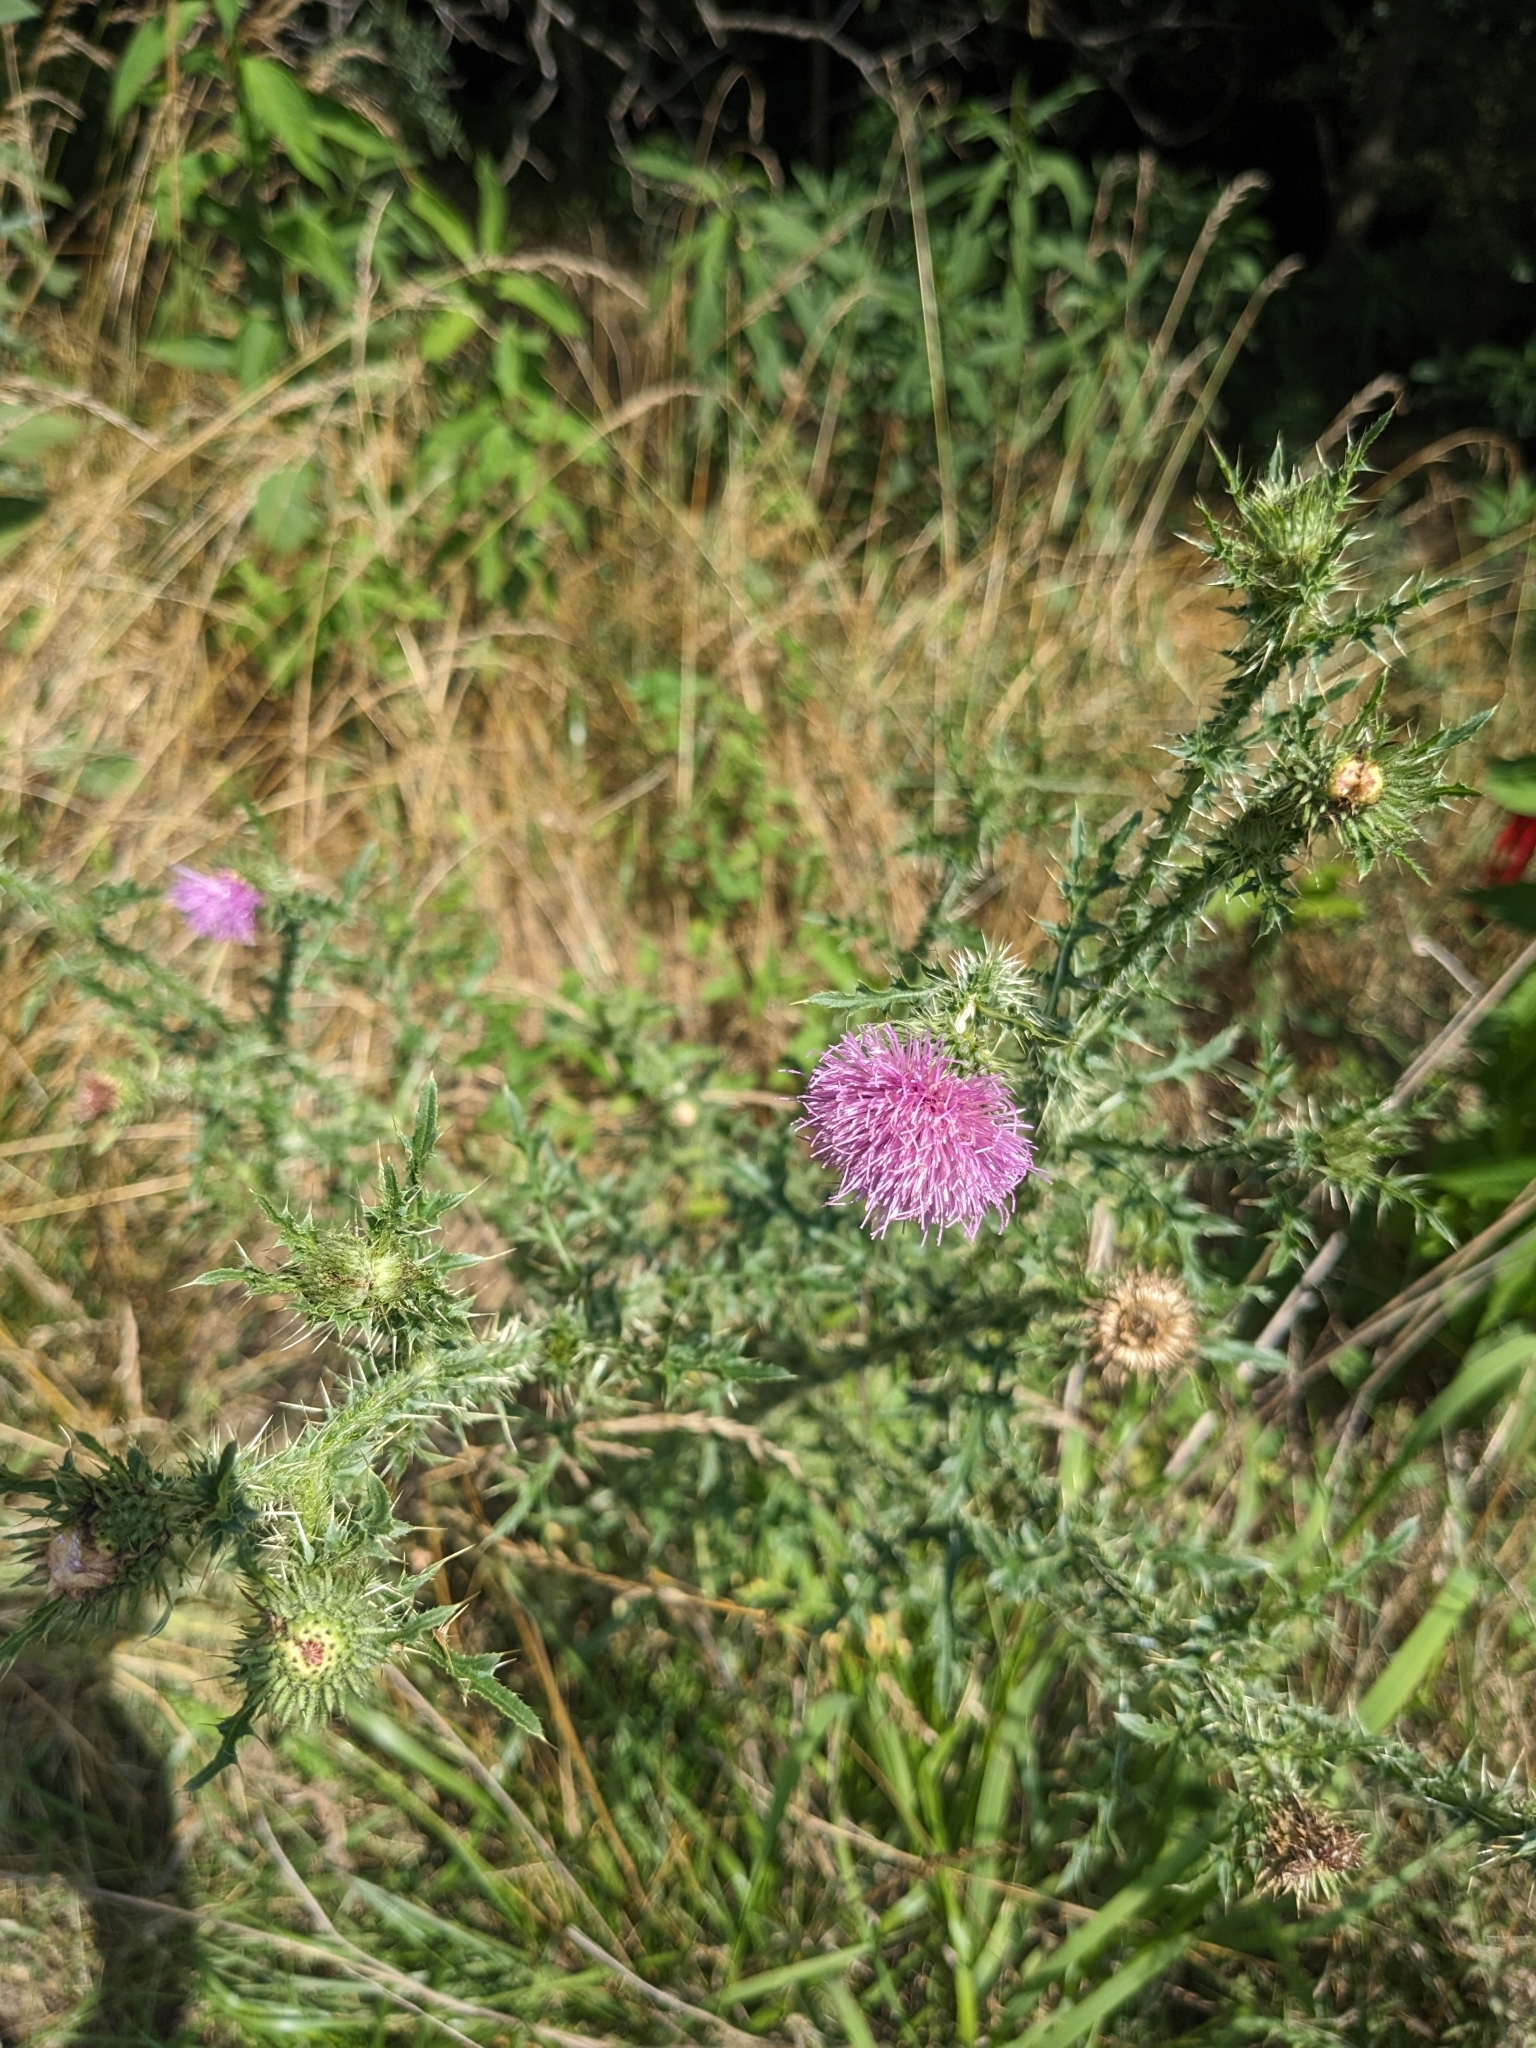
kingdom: Plantae
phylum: Tracheophyta
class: Magnoliopsida
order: Asterales
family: Asteraceae
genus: Carduus
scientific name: Carduus acanthoides
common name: Plumeless thistle
